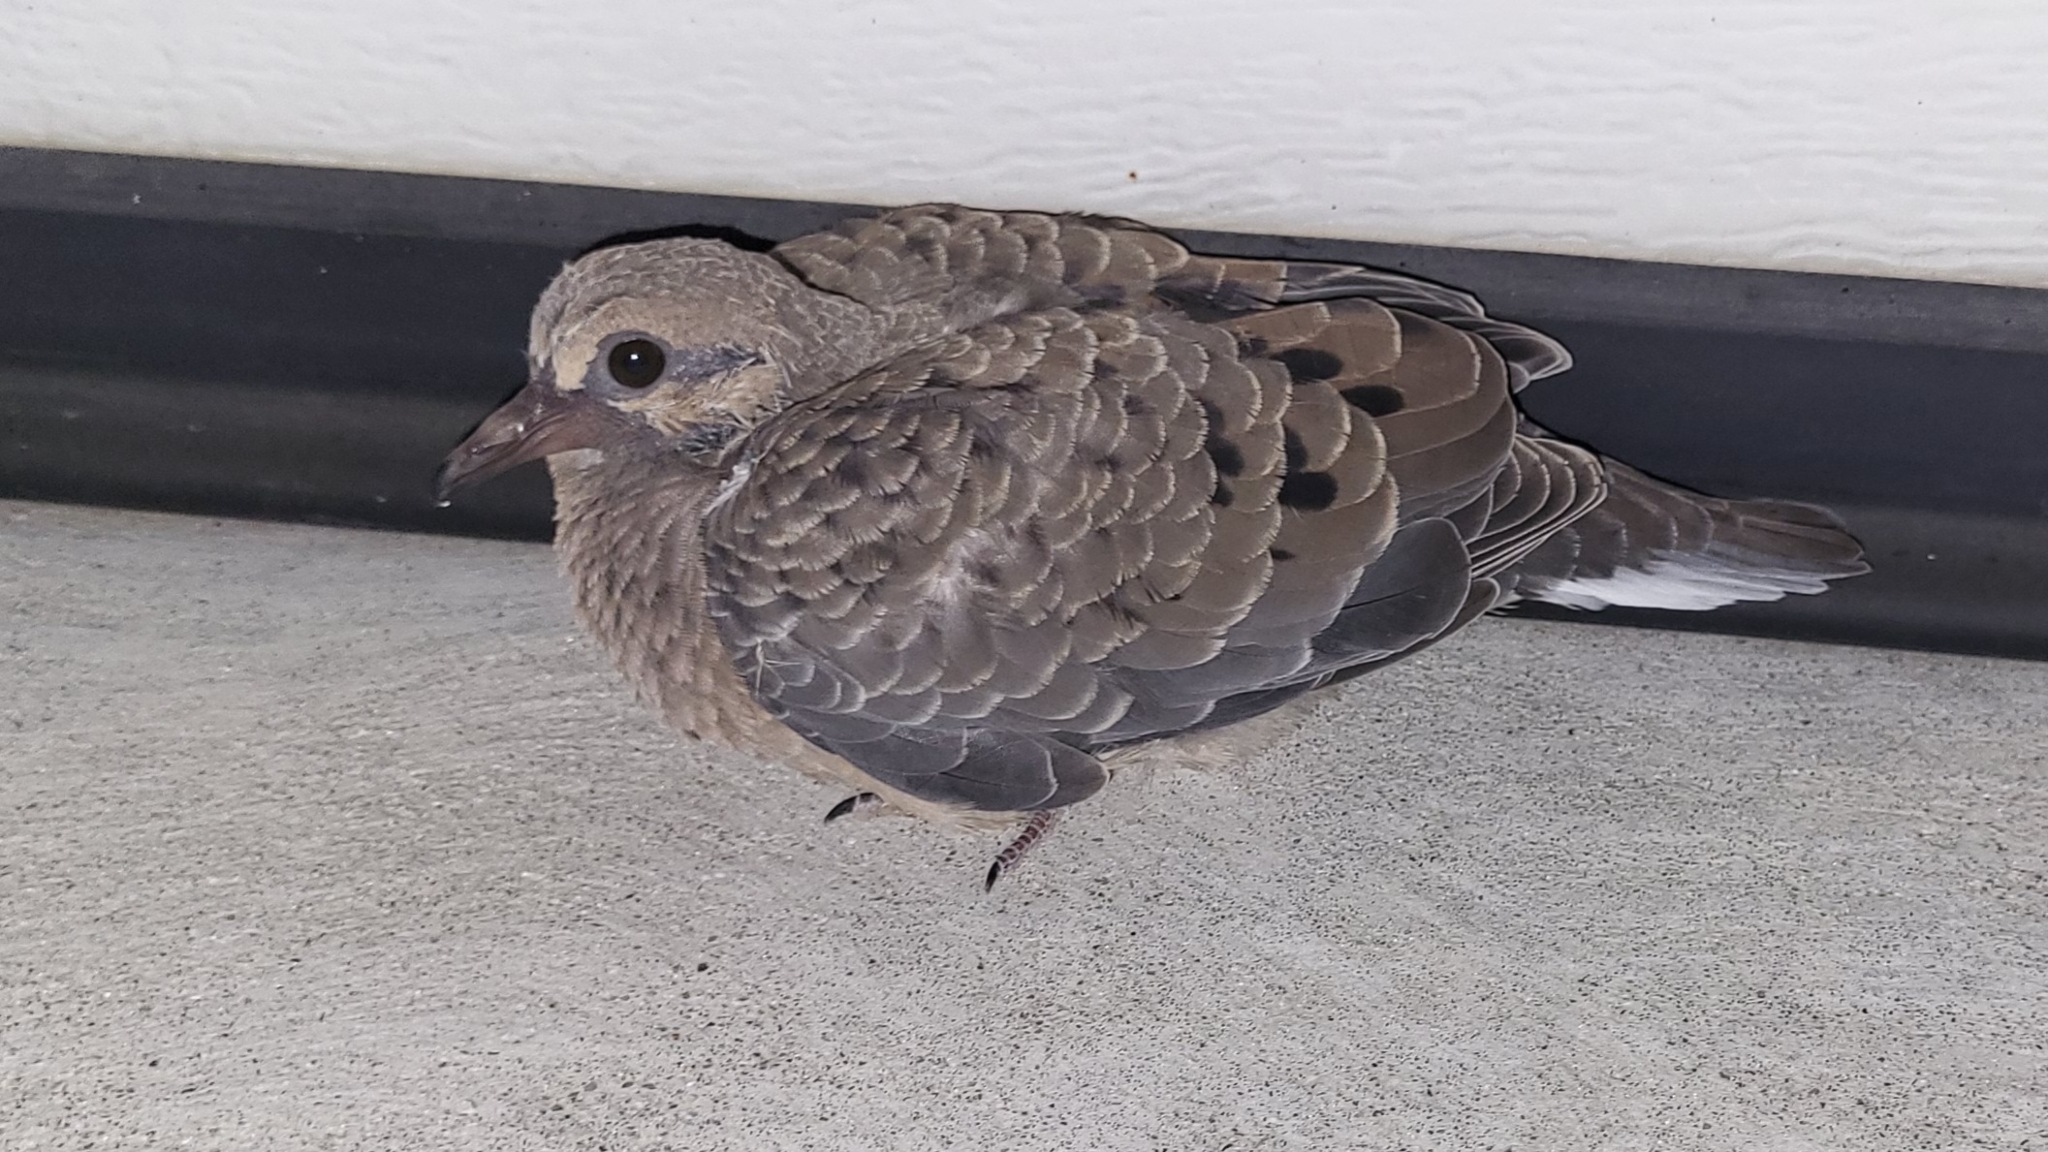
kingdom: Animalia
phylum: Chordata
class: Aves
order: Columbiformes
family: Columbidae
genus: Zenaida
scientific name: Zenaida macroura
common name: Mourning dove
